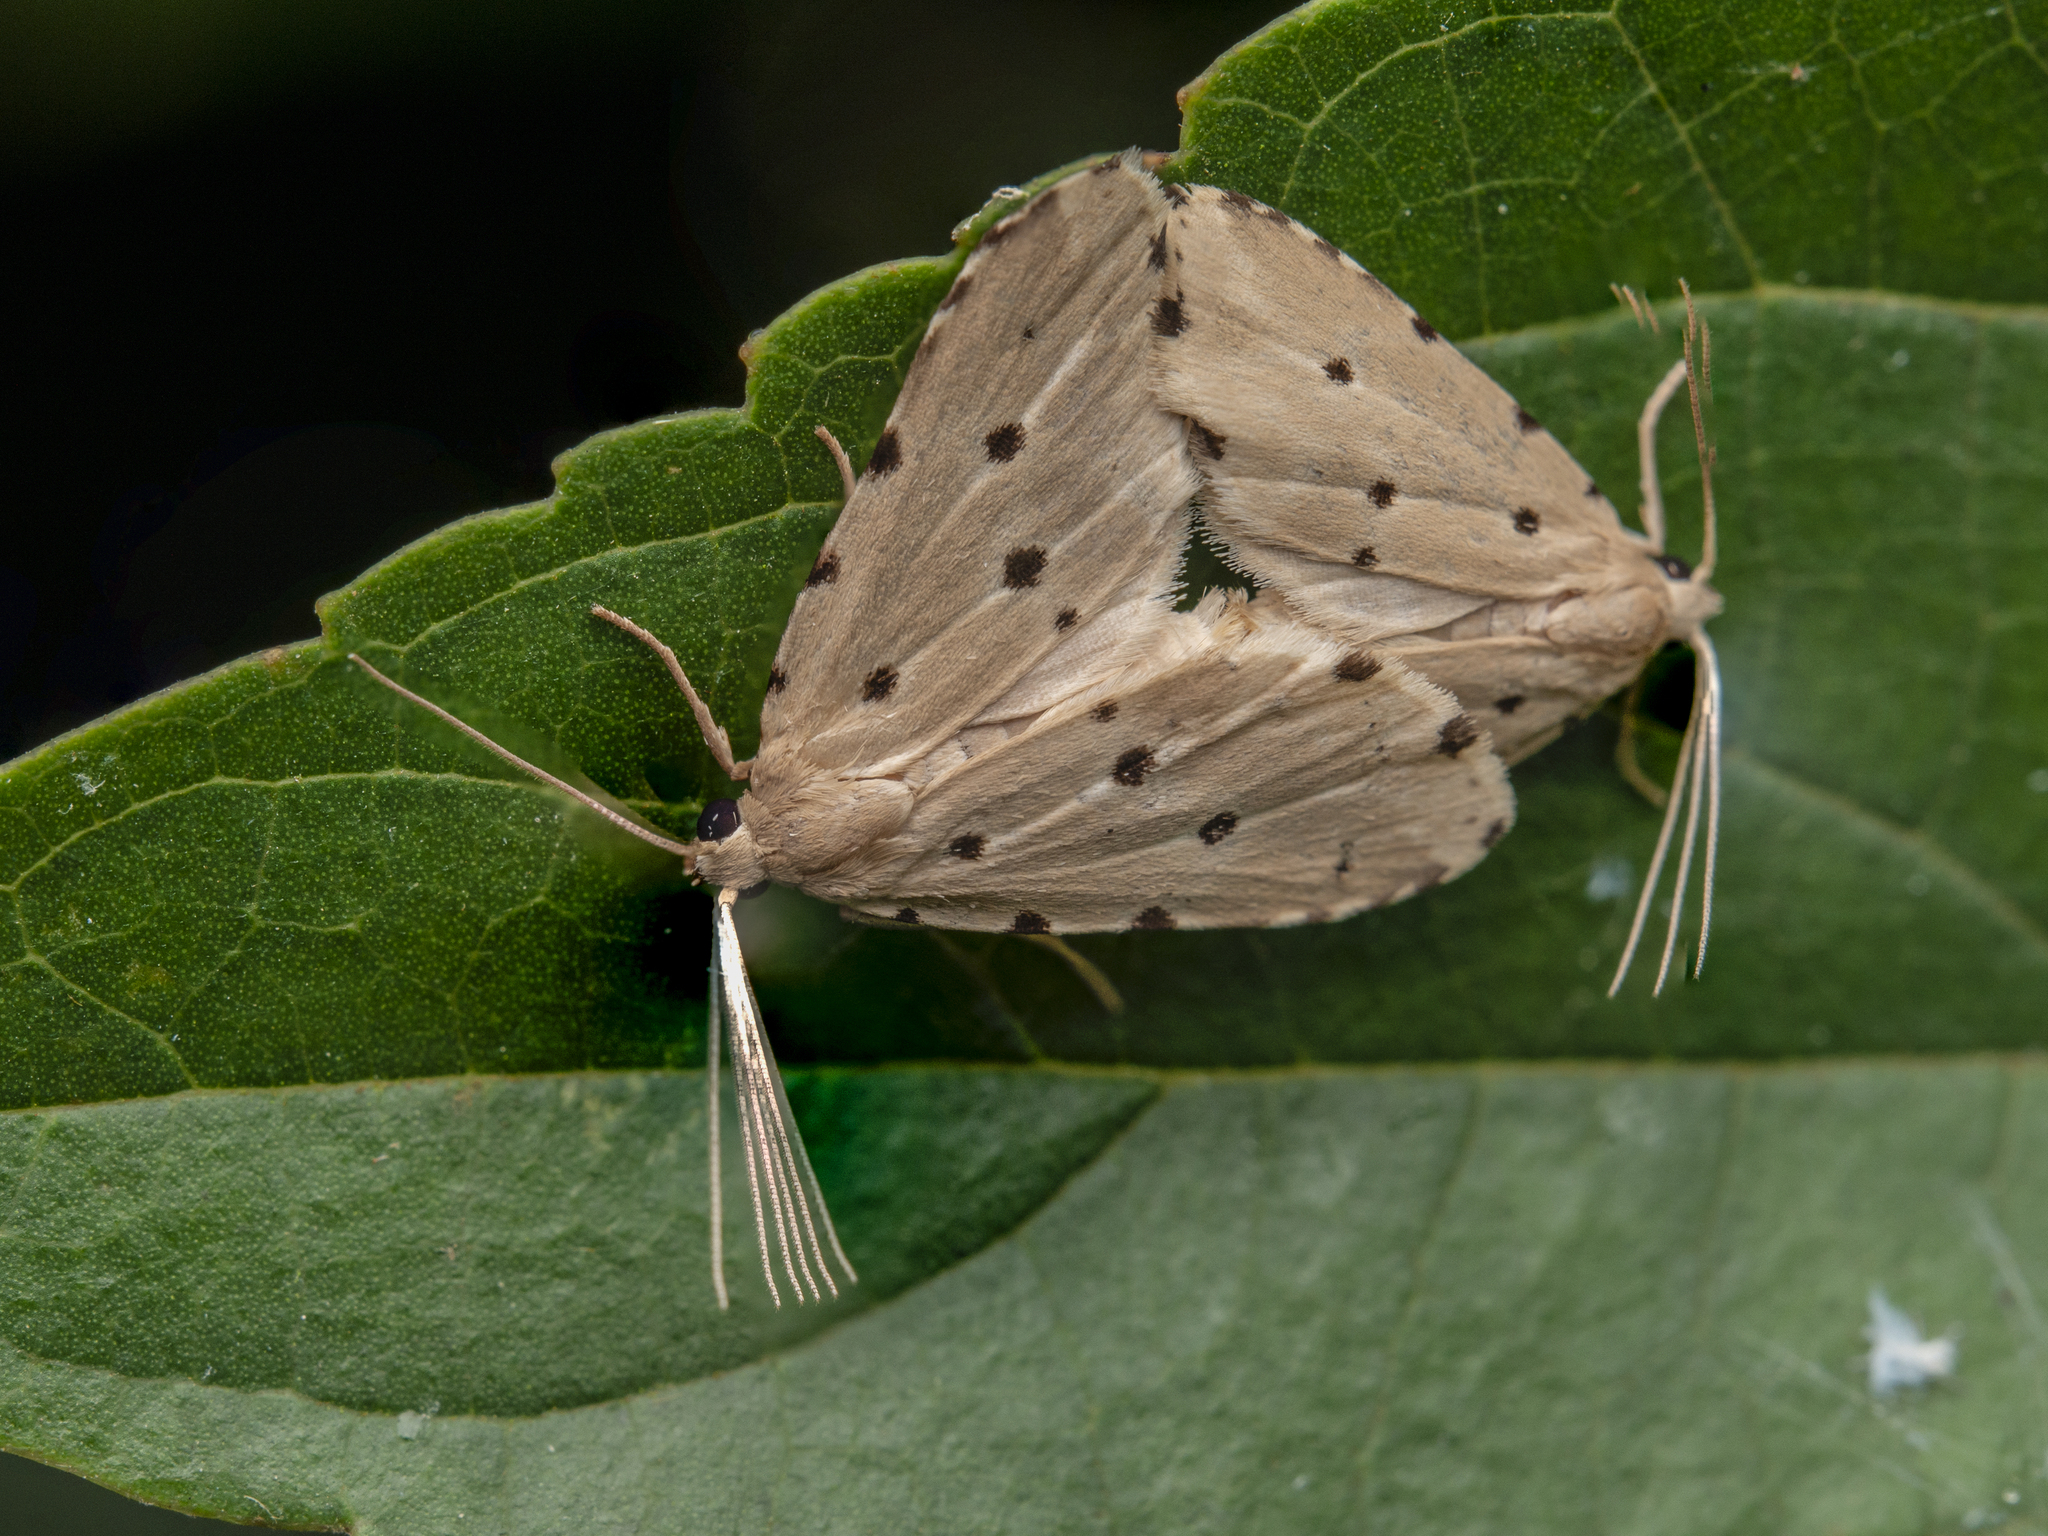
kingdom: Animalia
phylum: Arthropoda
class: Insecta
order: Lepidoptera
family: Noctuidae
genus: Metaemene
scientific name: Metaemene atrigutta
